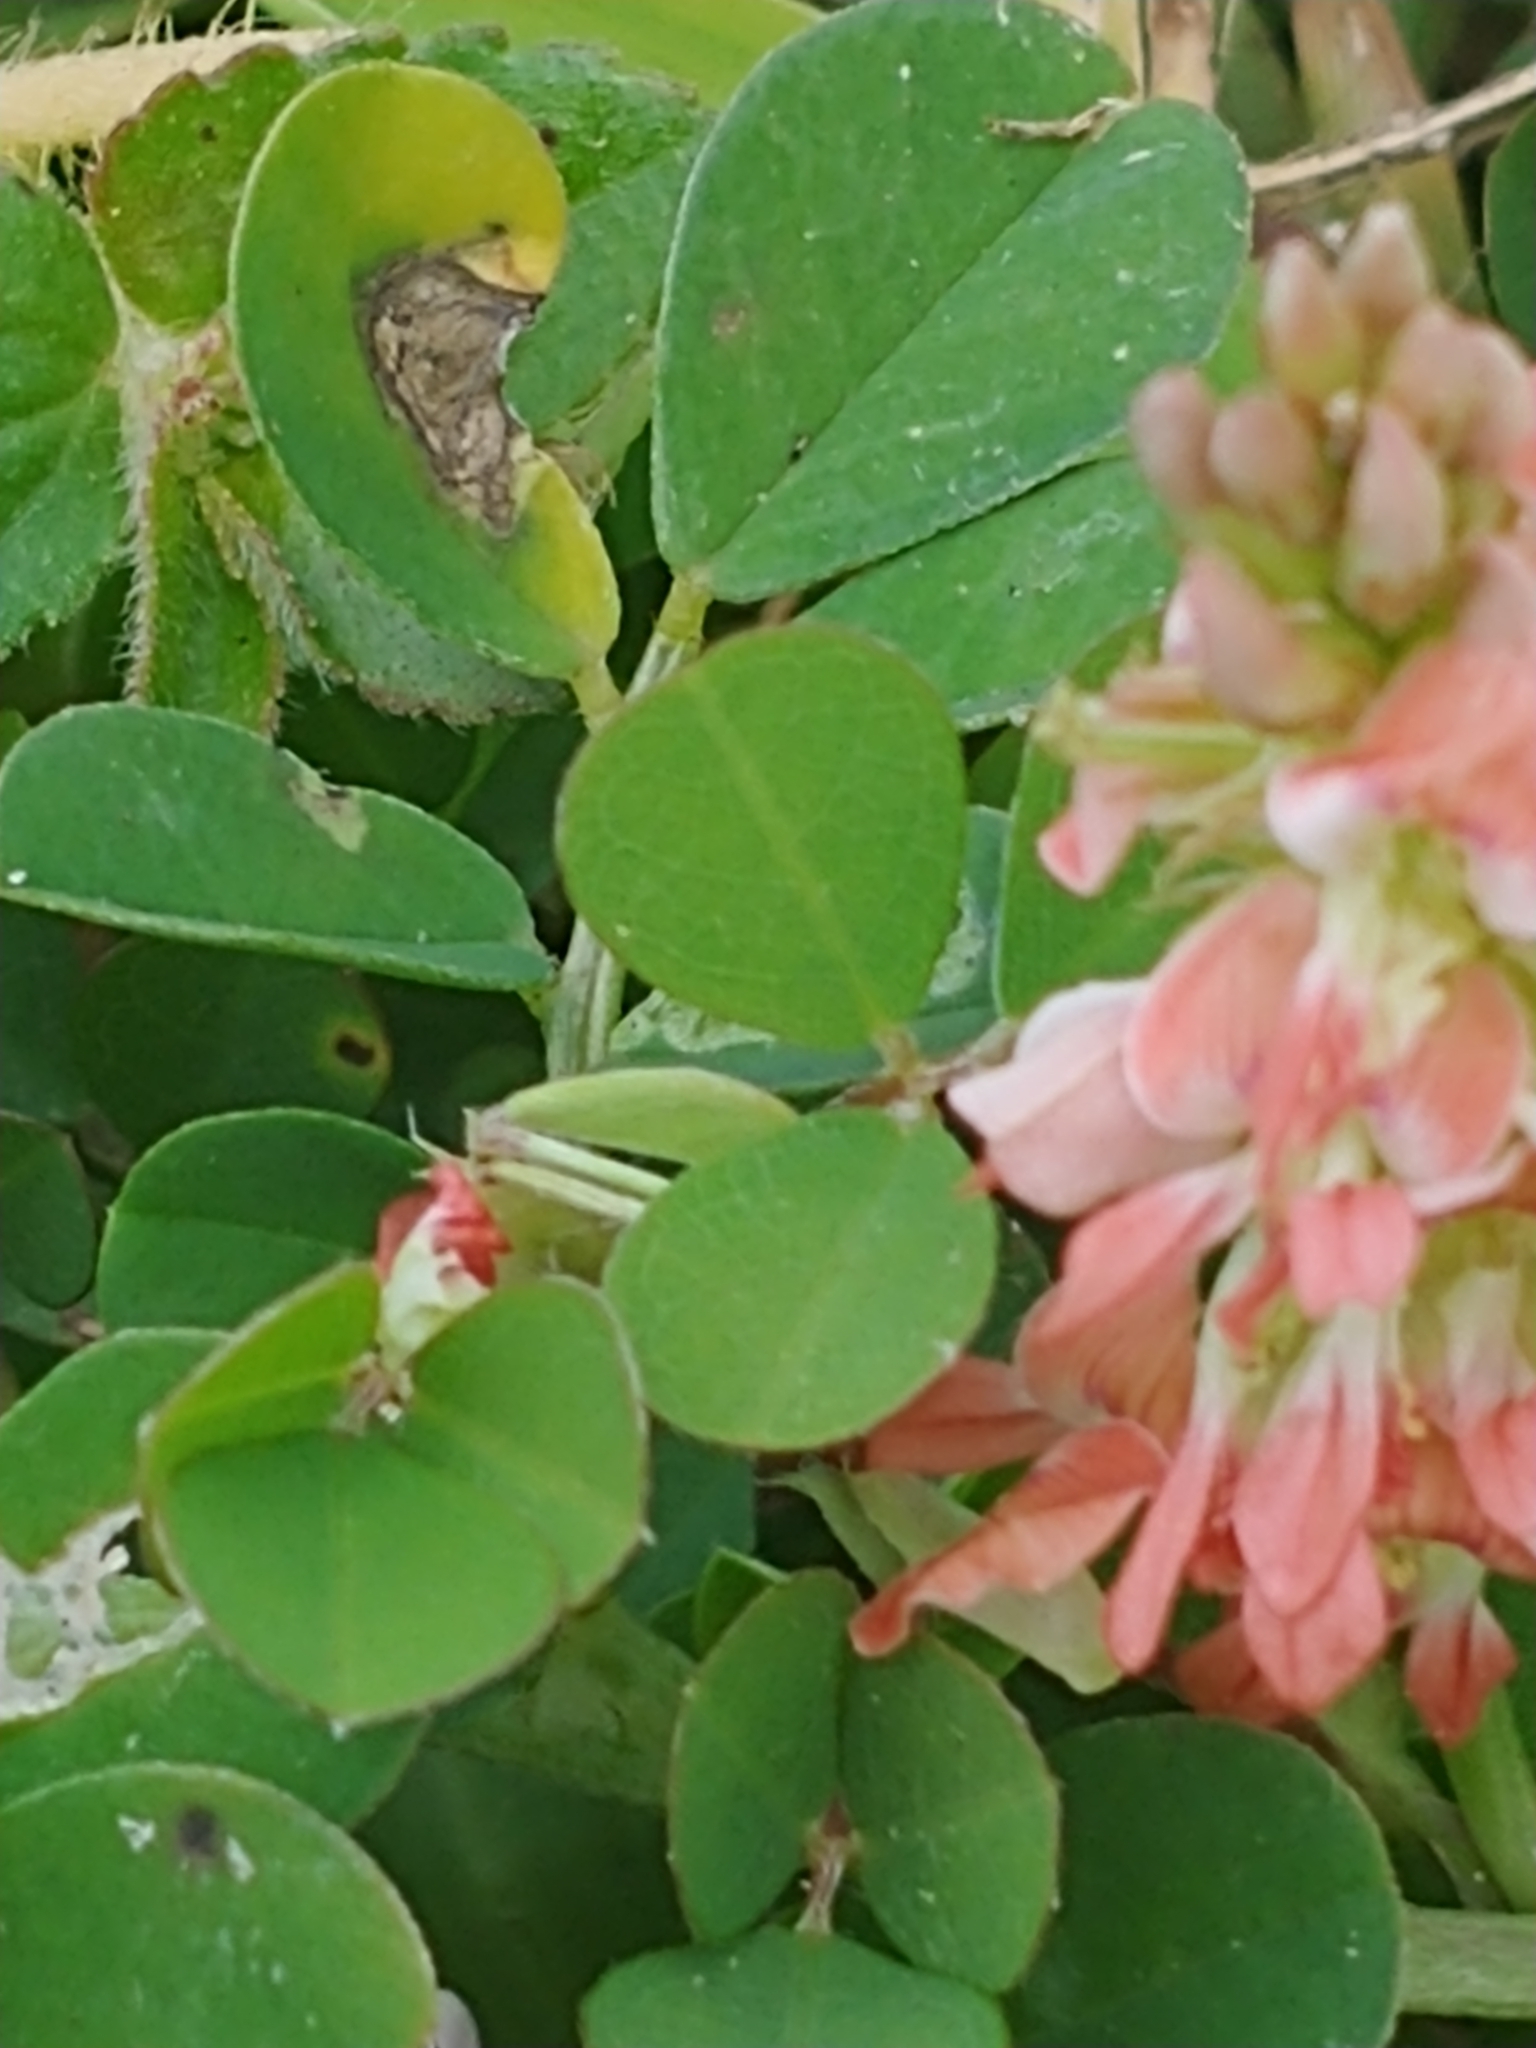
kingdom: Plantae
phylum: Tracheophyta
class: Magnoliopsida
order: Fabales
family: Fabaceae
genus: Indigofera
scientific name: Indigofera spicata
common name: Creeping indigo
